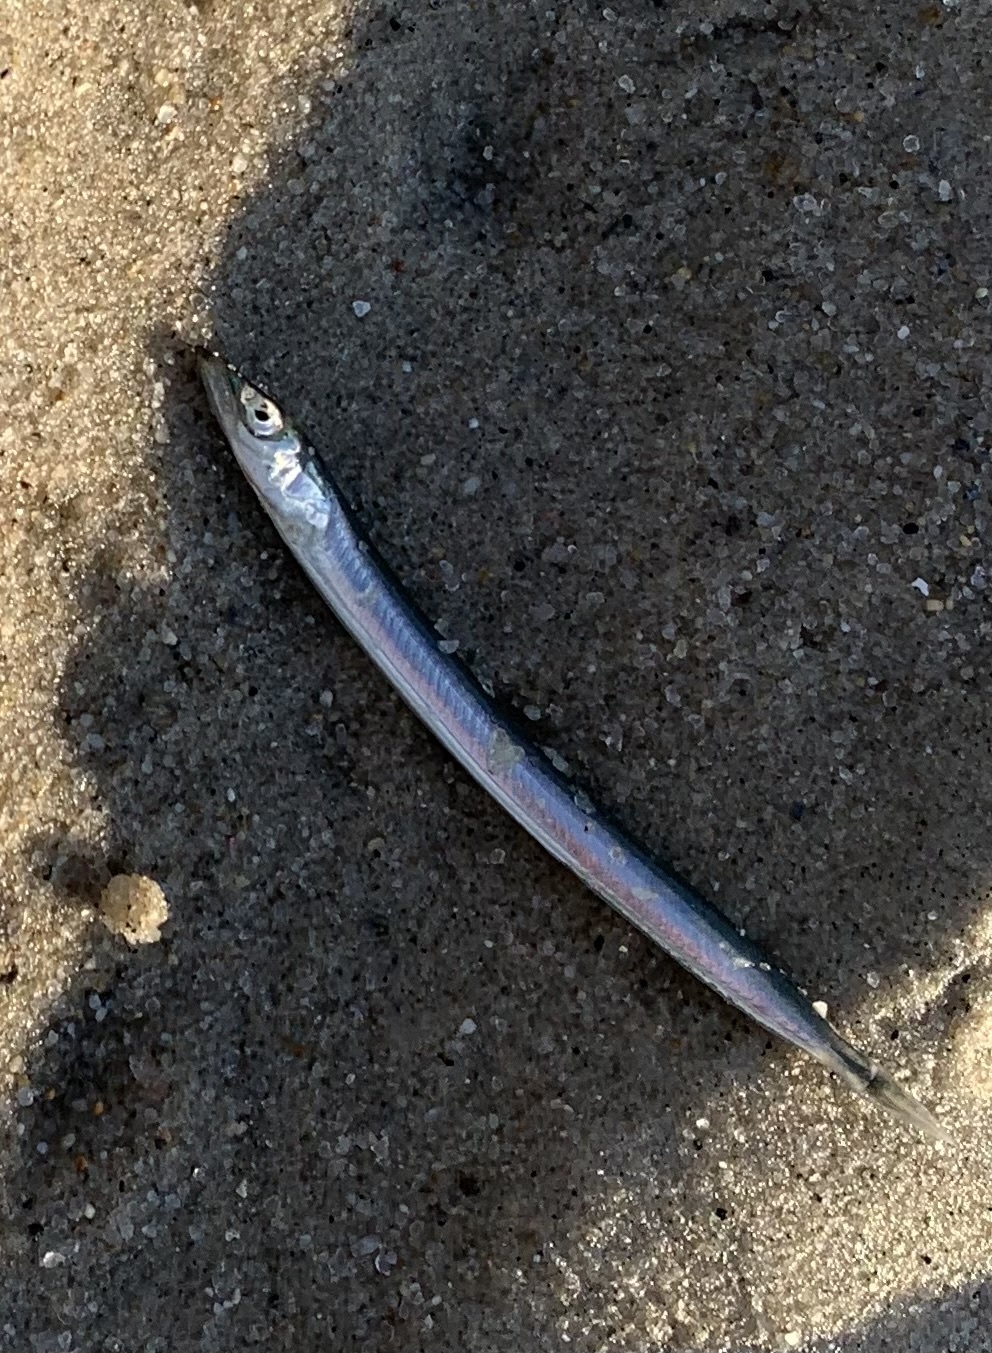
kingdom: Animalia
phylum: Chordata
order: Perciformes
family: Ammodytidae
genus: Ammodytes
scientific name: Ammodytes
